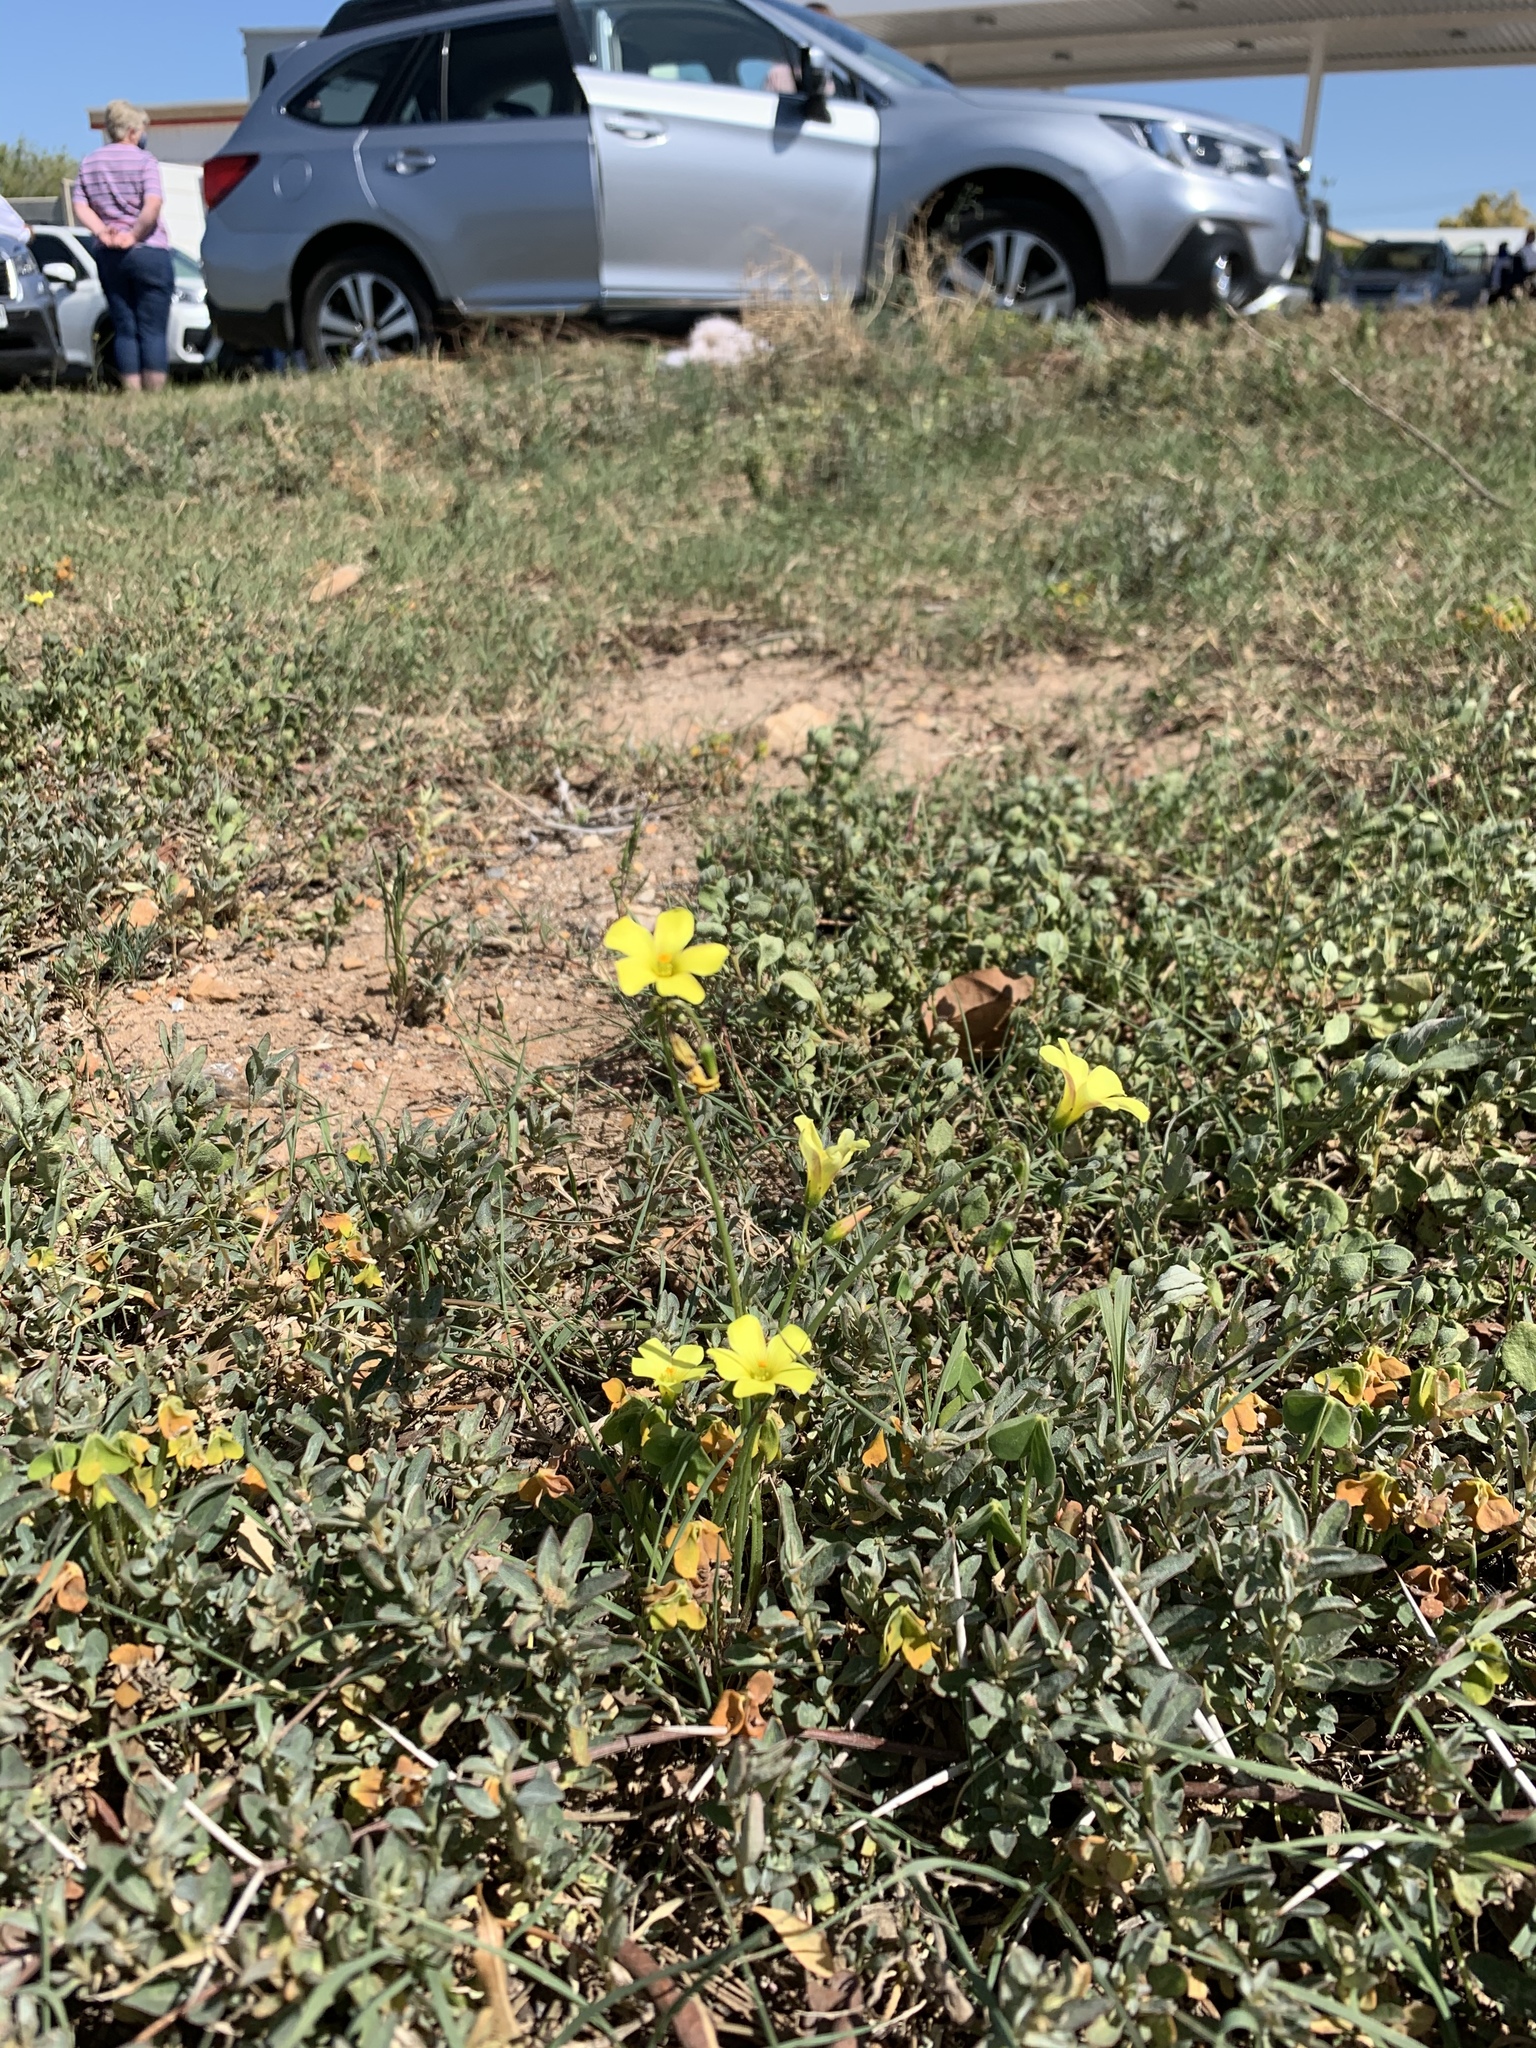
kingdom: Plantae
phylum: Tracheophyta
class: Magnoliopsida
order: Oxalidales
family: Oxalidaceae
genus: Oxalis
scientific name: Oxalis pes-caprae
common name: Bermuda-buttercup
